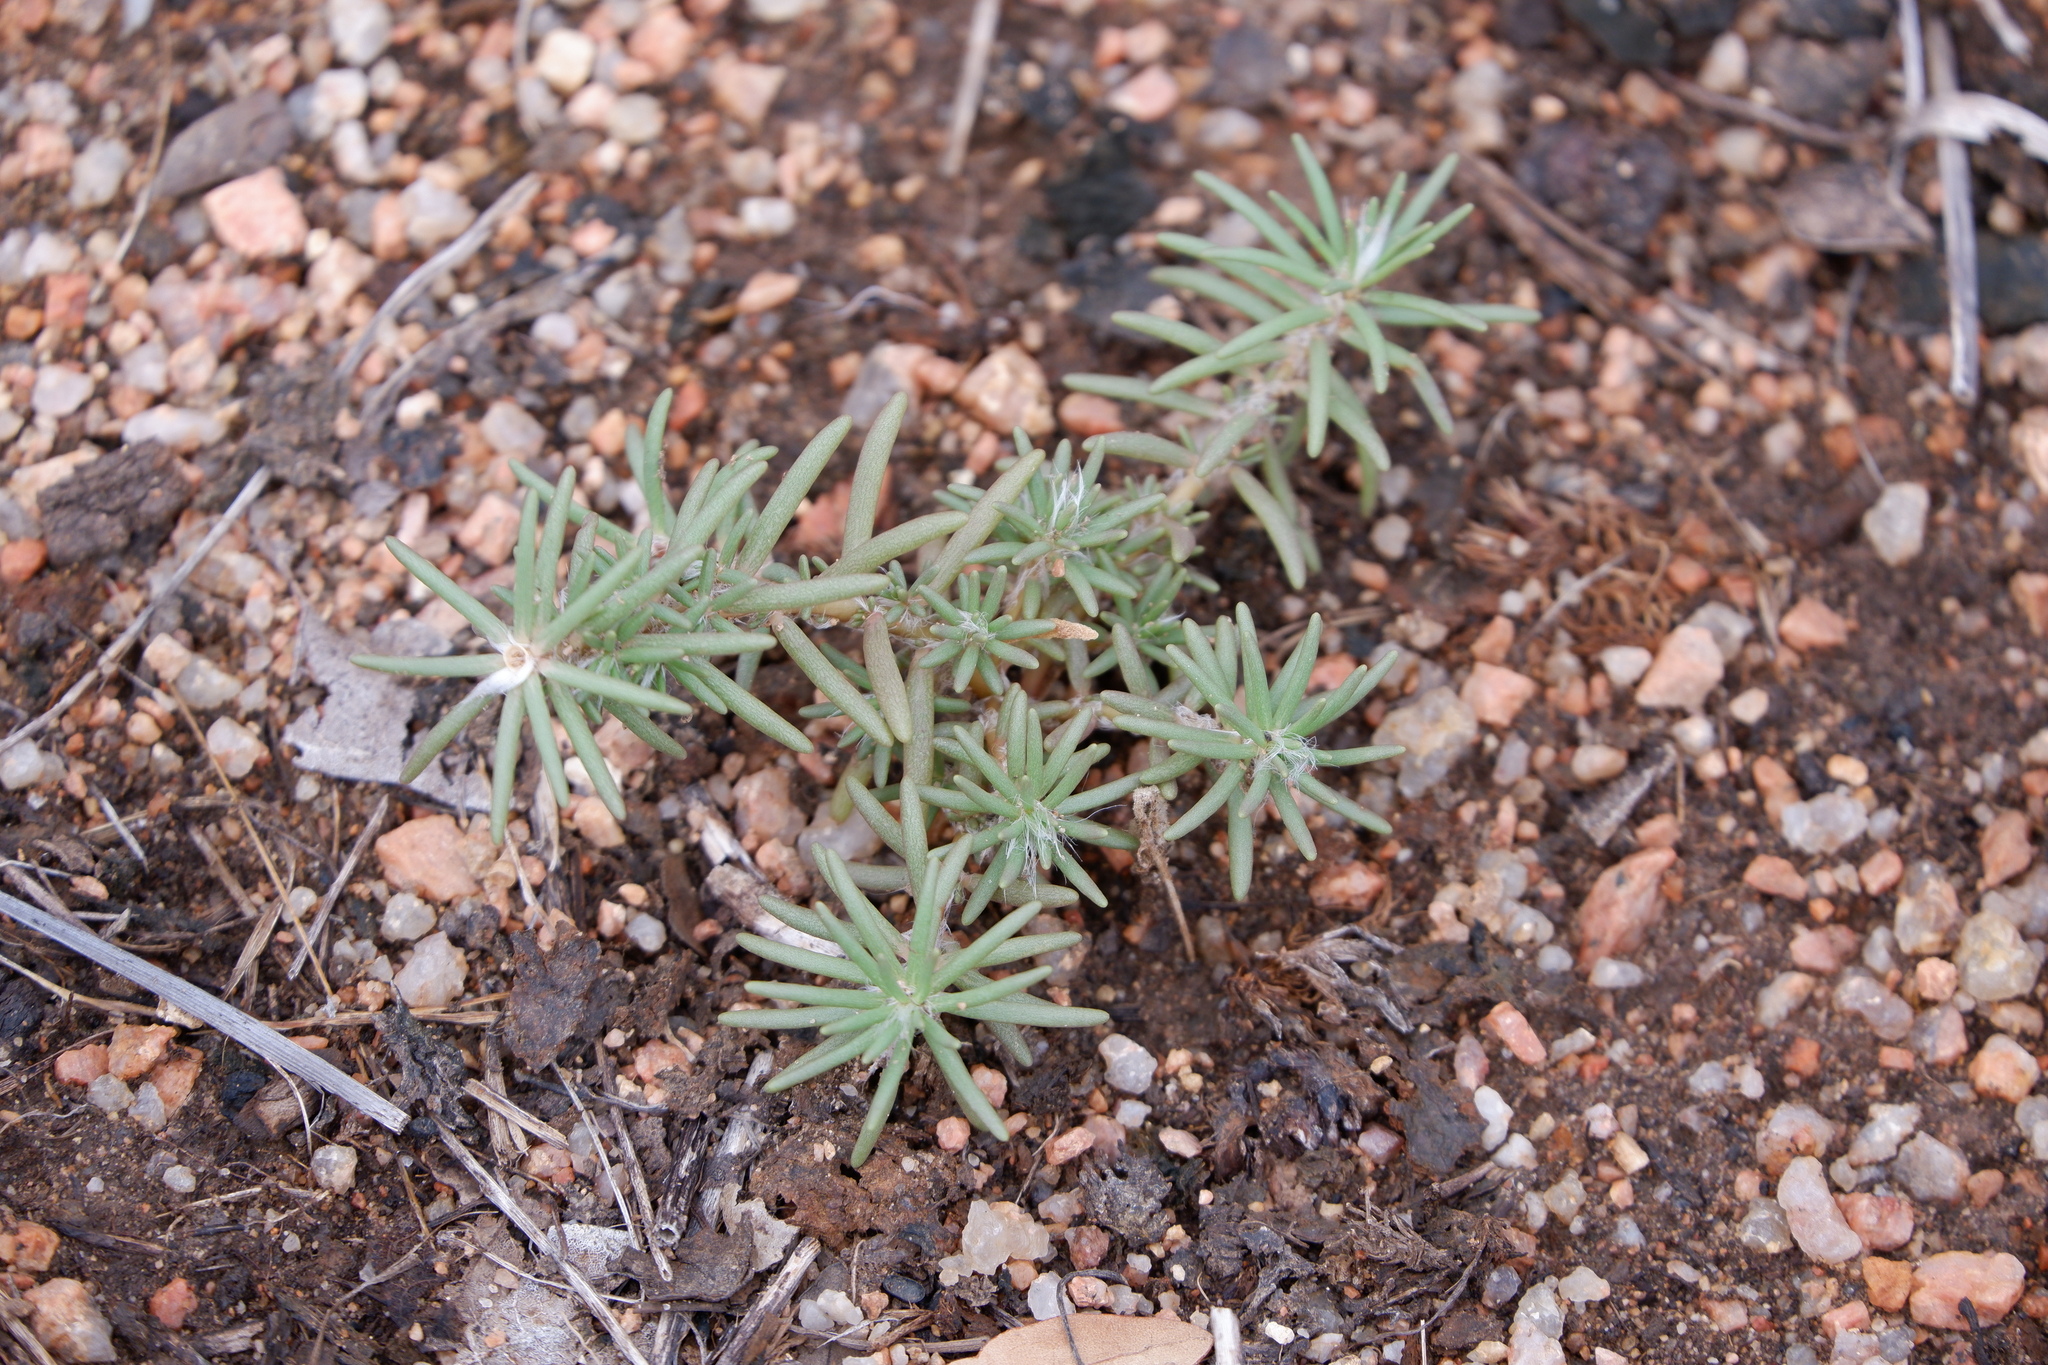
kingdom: Plantae
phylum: Tracheophyta
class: Magnoliopsida
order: Caryophyllales
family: Portulacaceae
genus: Portulaca
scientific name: Portulaca pilosa
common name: Kiss me quick
